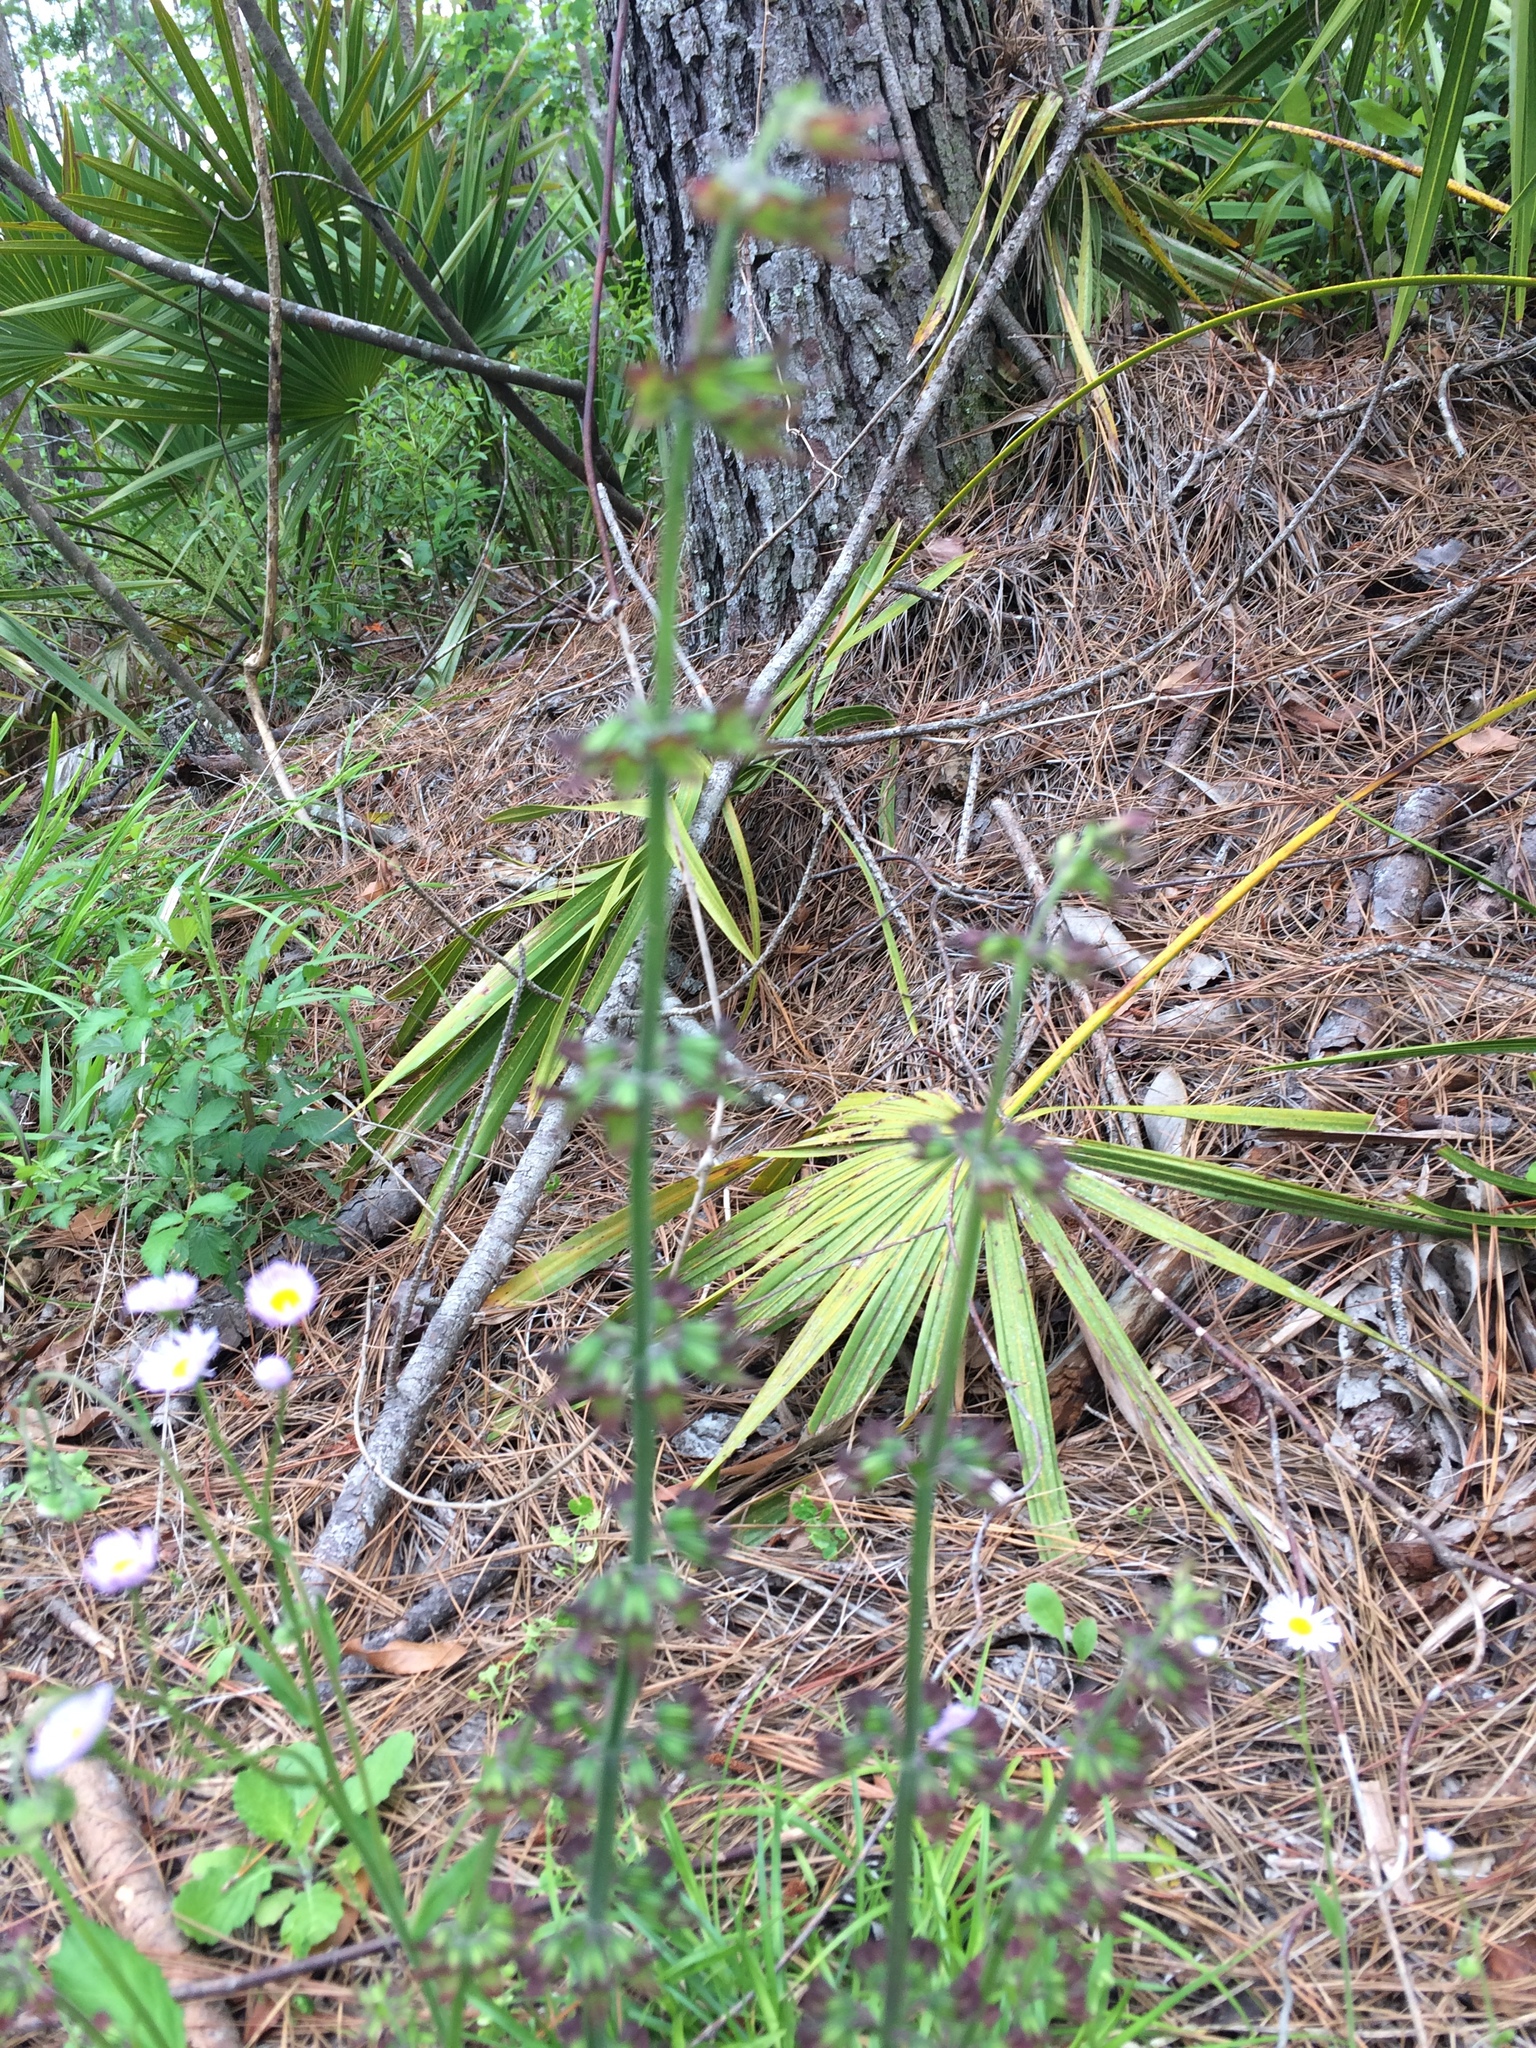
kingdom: Plantae
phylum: Tracheophyta
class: Magnoliopsida
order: Lamiales
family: Lamiaceae
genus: Salvia
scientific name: Salvia lyrata
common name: Cancerweed
